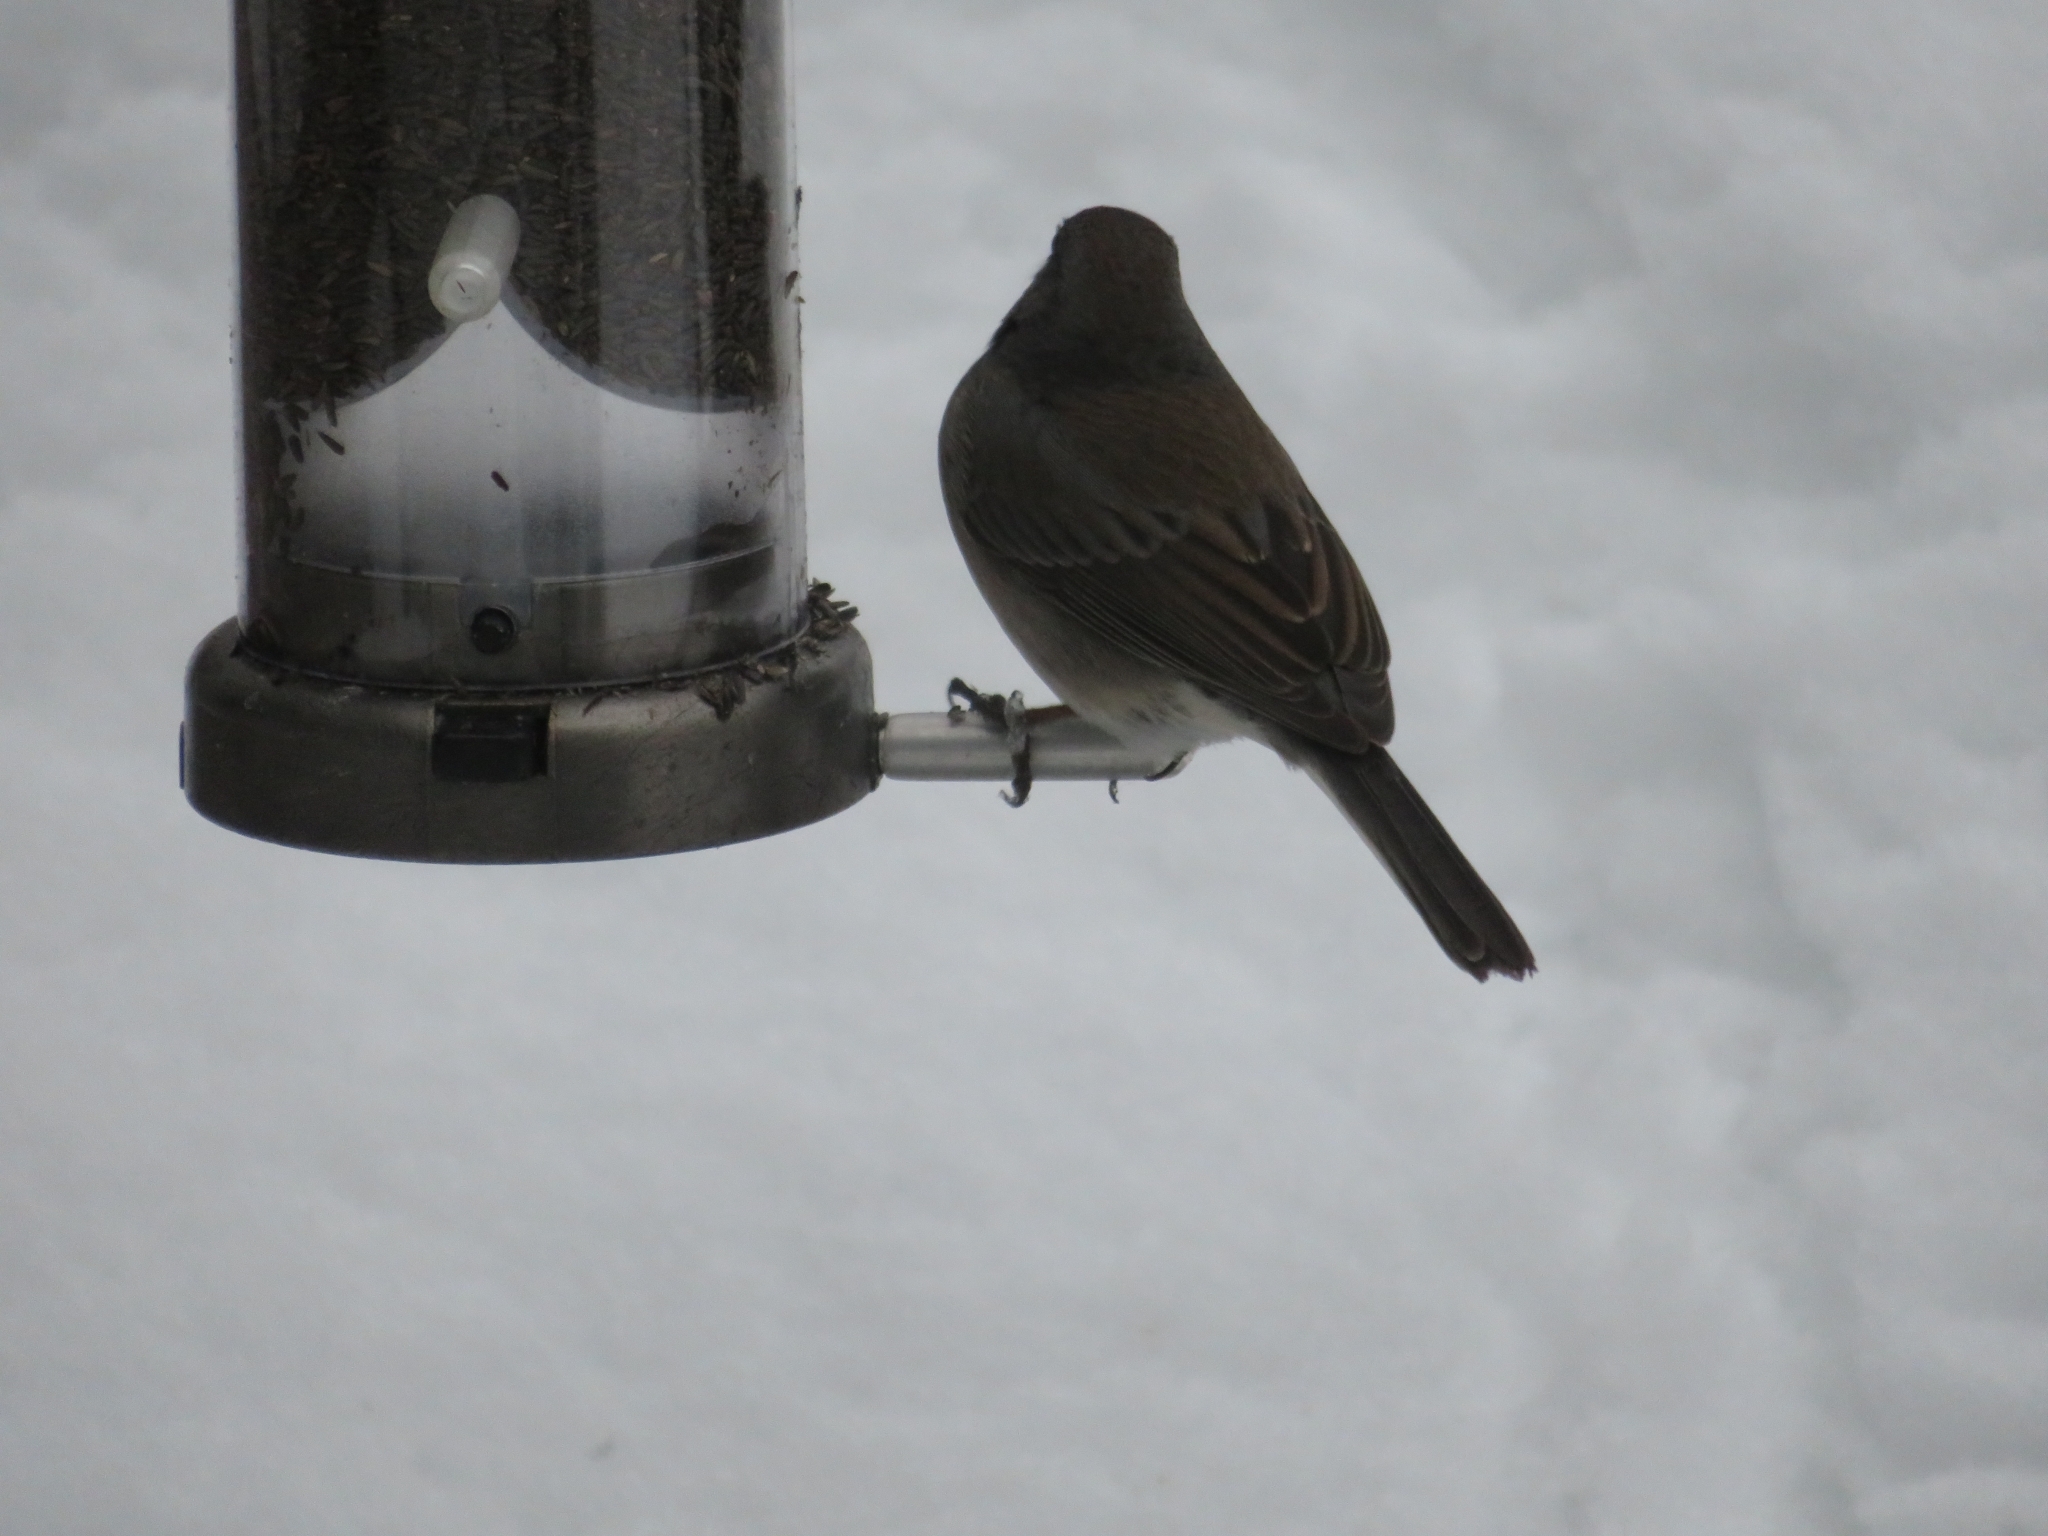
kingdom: Animalia
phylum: Chordata
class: Aves
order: Passeriformes
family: Passerellidae
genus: Junco
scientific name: Junco hyemalis
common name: Dark-eyed junco
